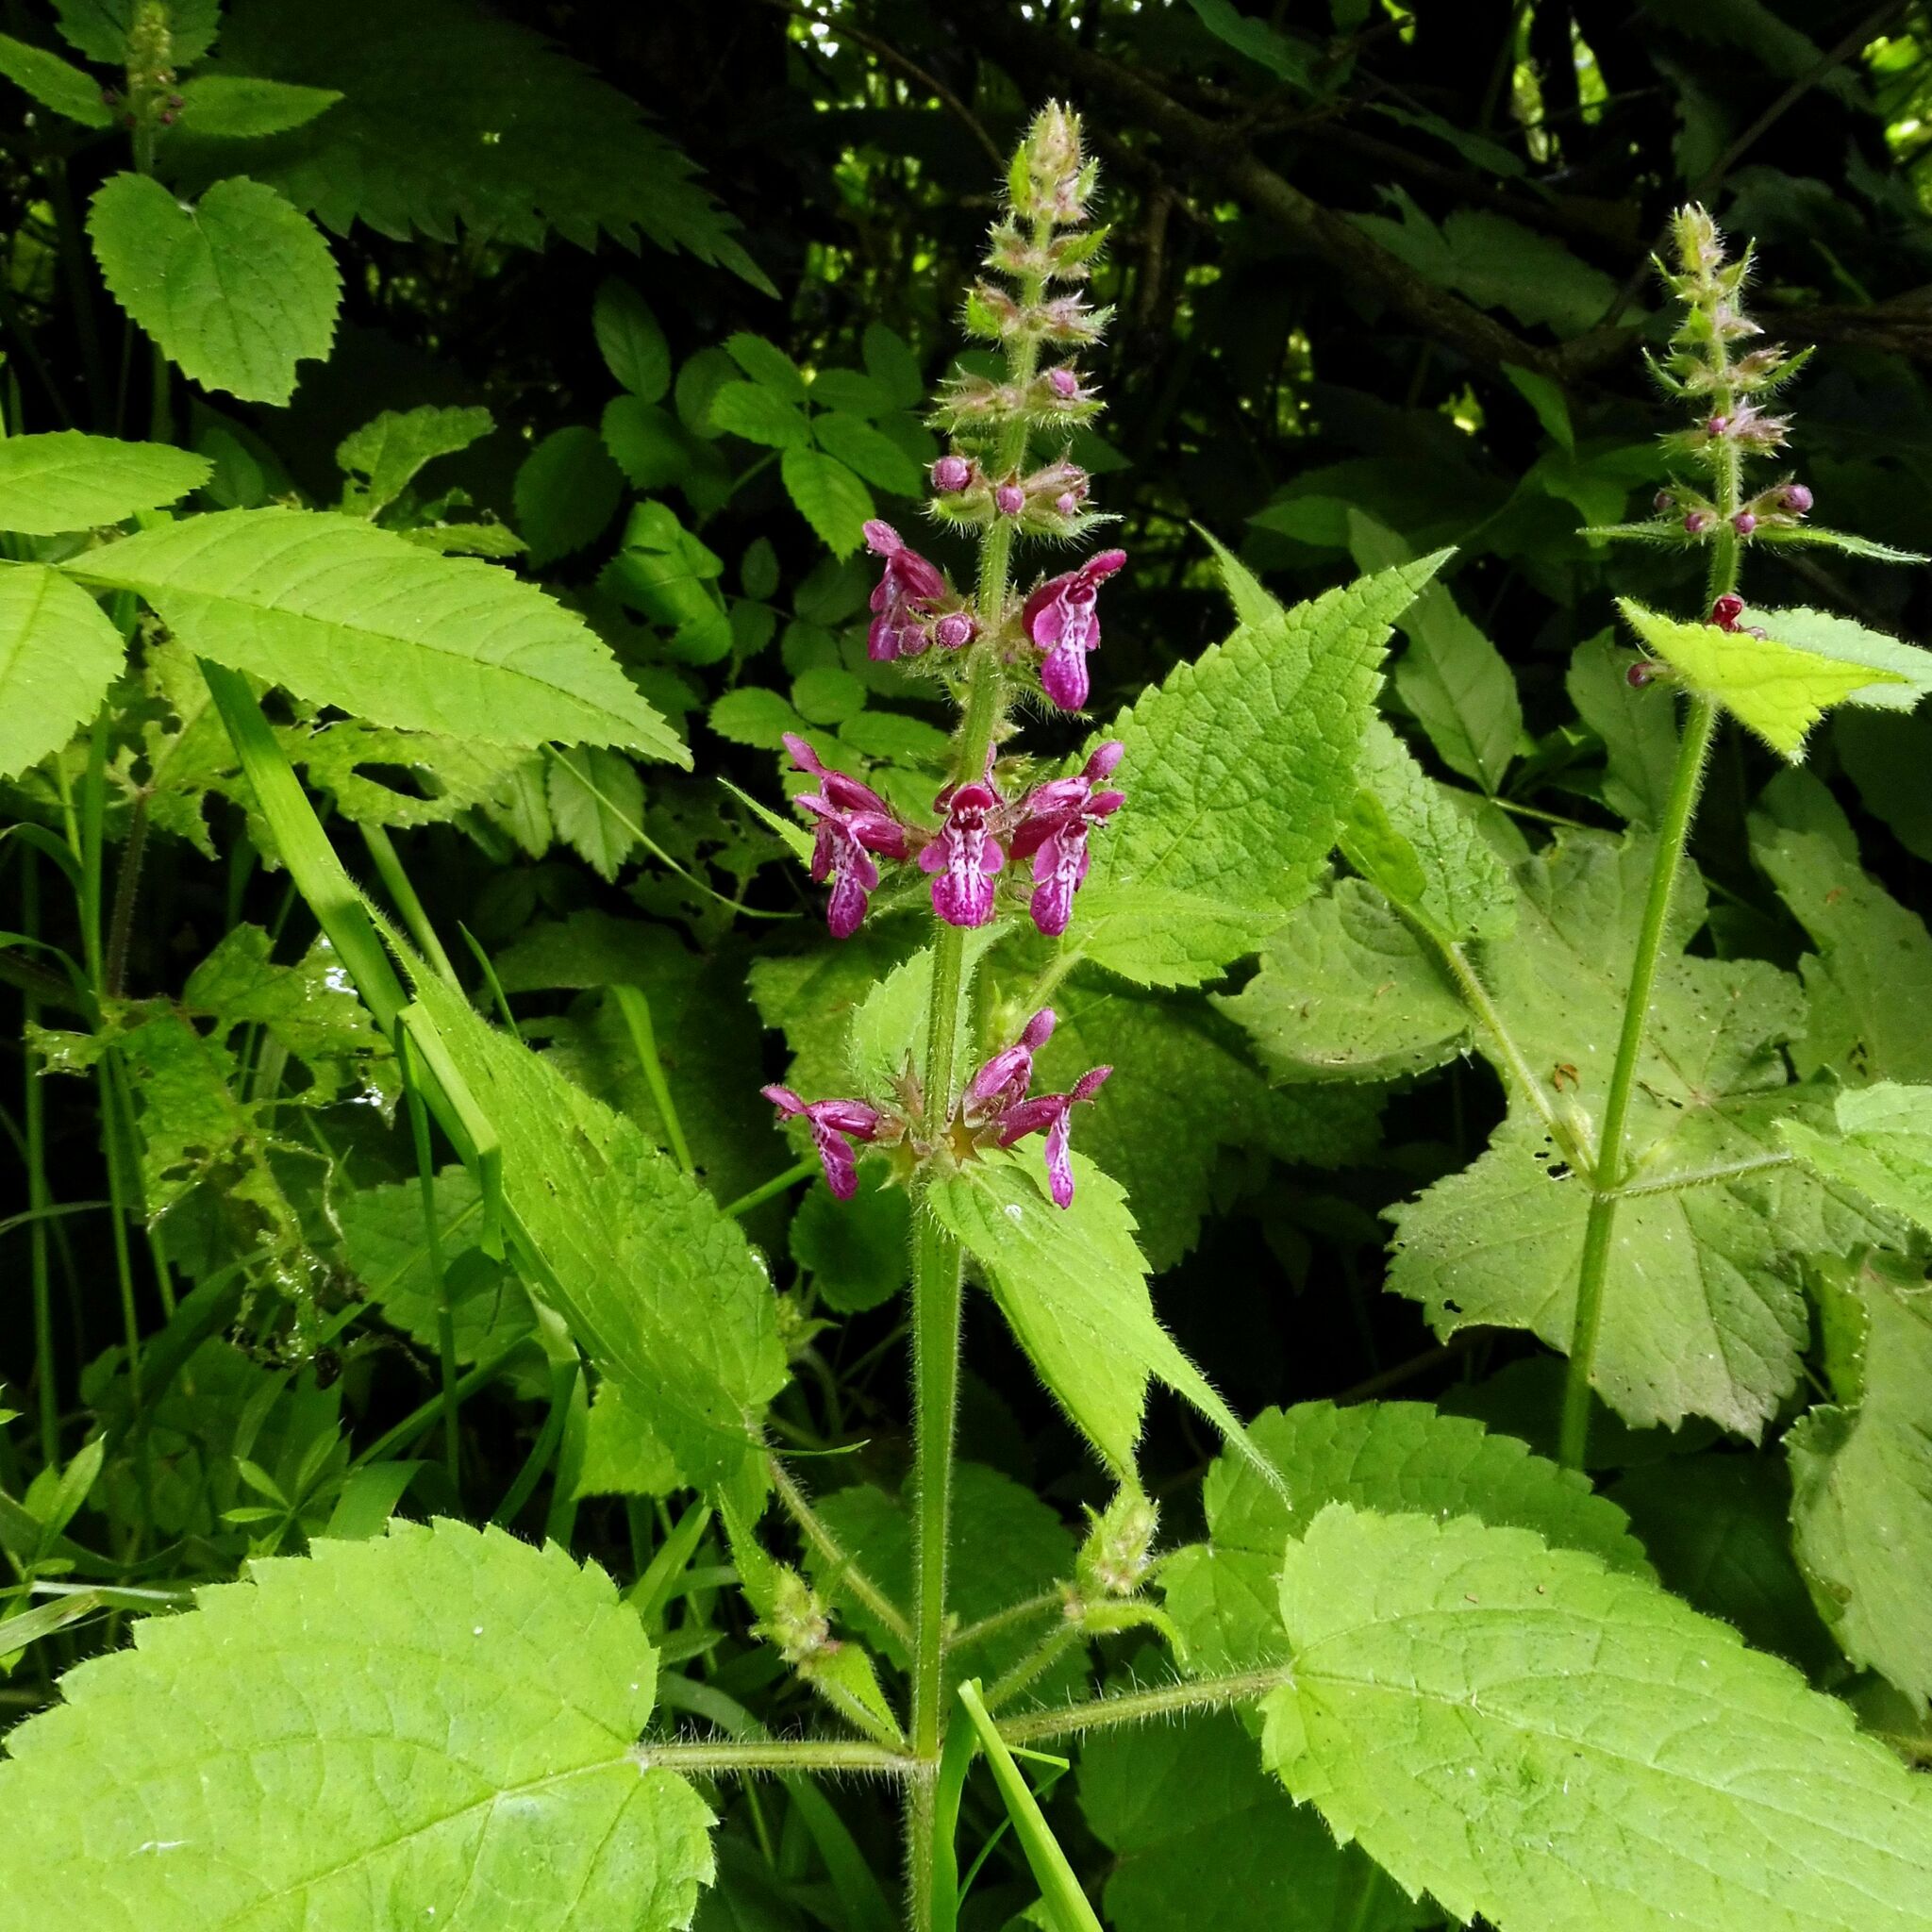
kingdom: Plantae
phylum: Tracheophyta
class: Magnoliopsida
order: Lamiales
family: Lamiaceae
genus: Stachys
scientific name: Stachys sylvatica
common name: Hedge woundwort
